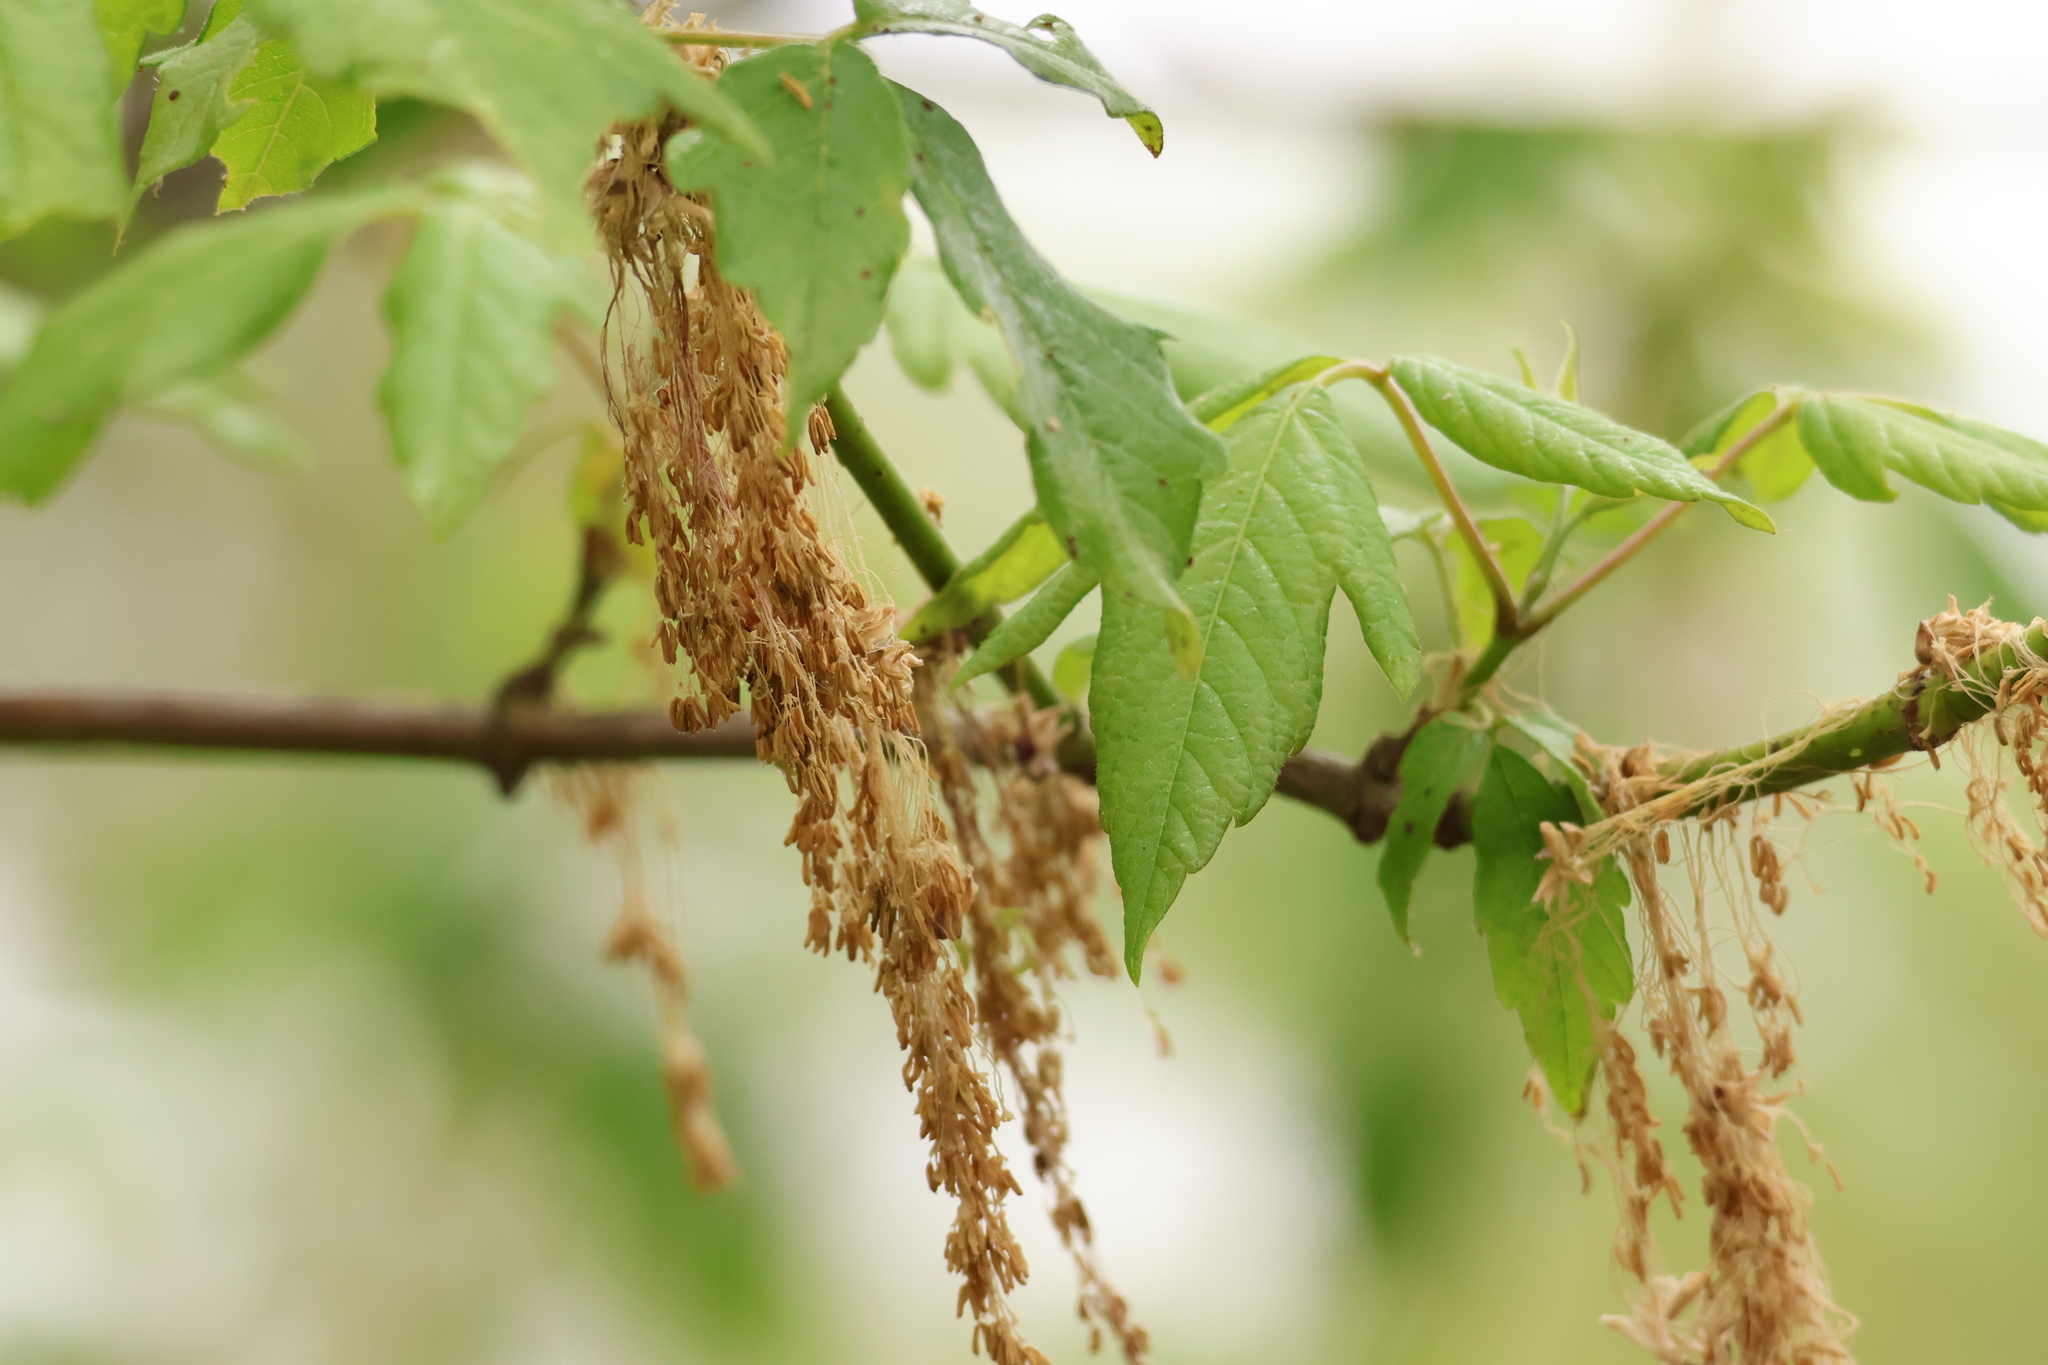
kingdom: Plantae
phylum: Tracheophyta
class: Magnoliopsida
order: Sapindales
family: Sapindaceae
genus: Acer
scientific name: Acer negundo
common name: Ashleaf maple
